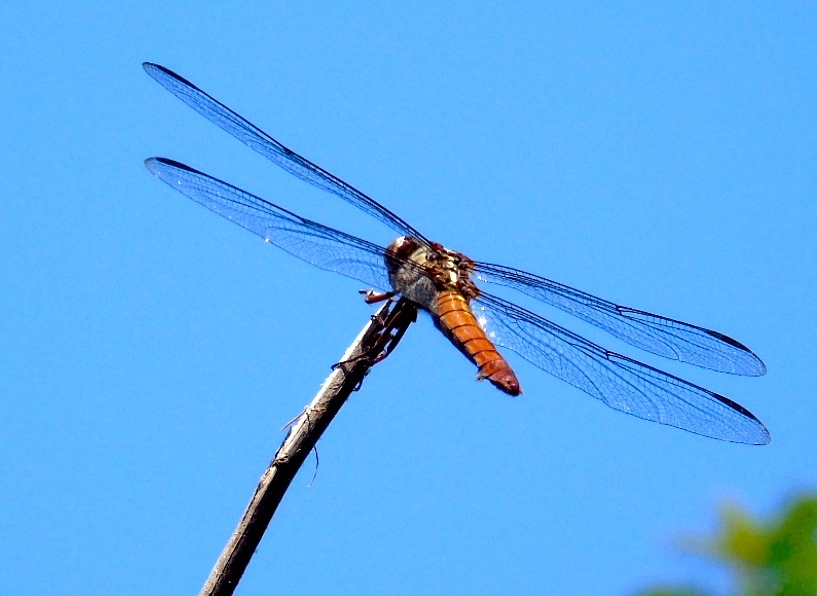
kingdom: Animalia
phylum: Arthropoda
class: Insecta
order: Odonata
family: Libellulidae
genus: Orthemis
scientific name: Orthemis ferruginea
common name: Roseate skimmer
